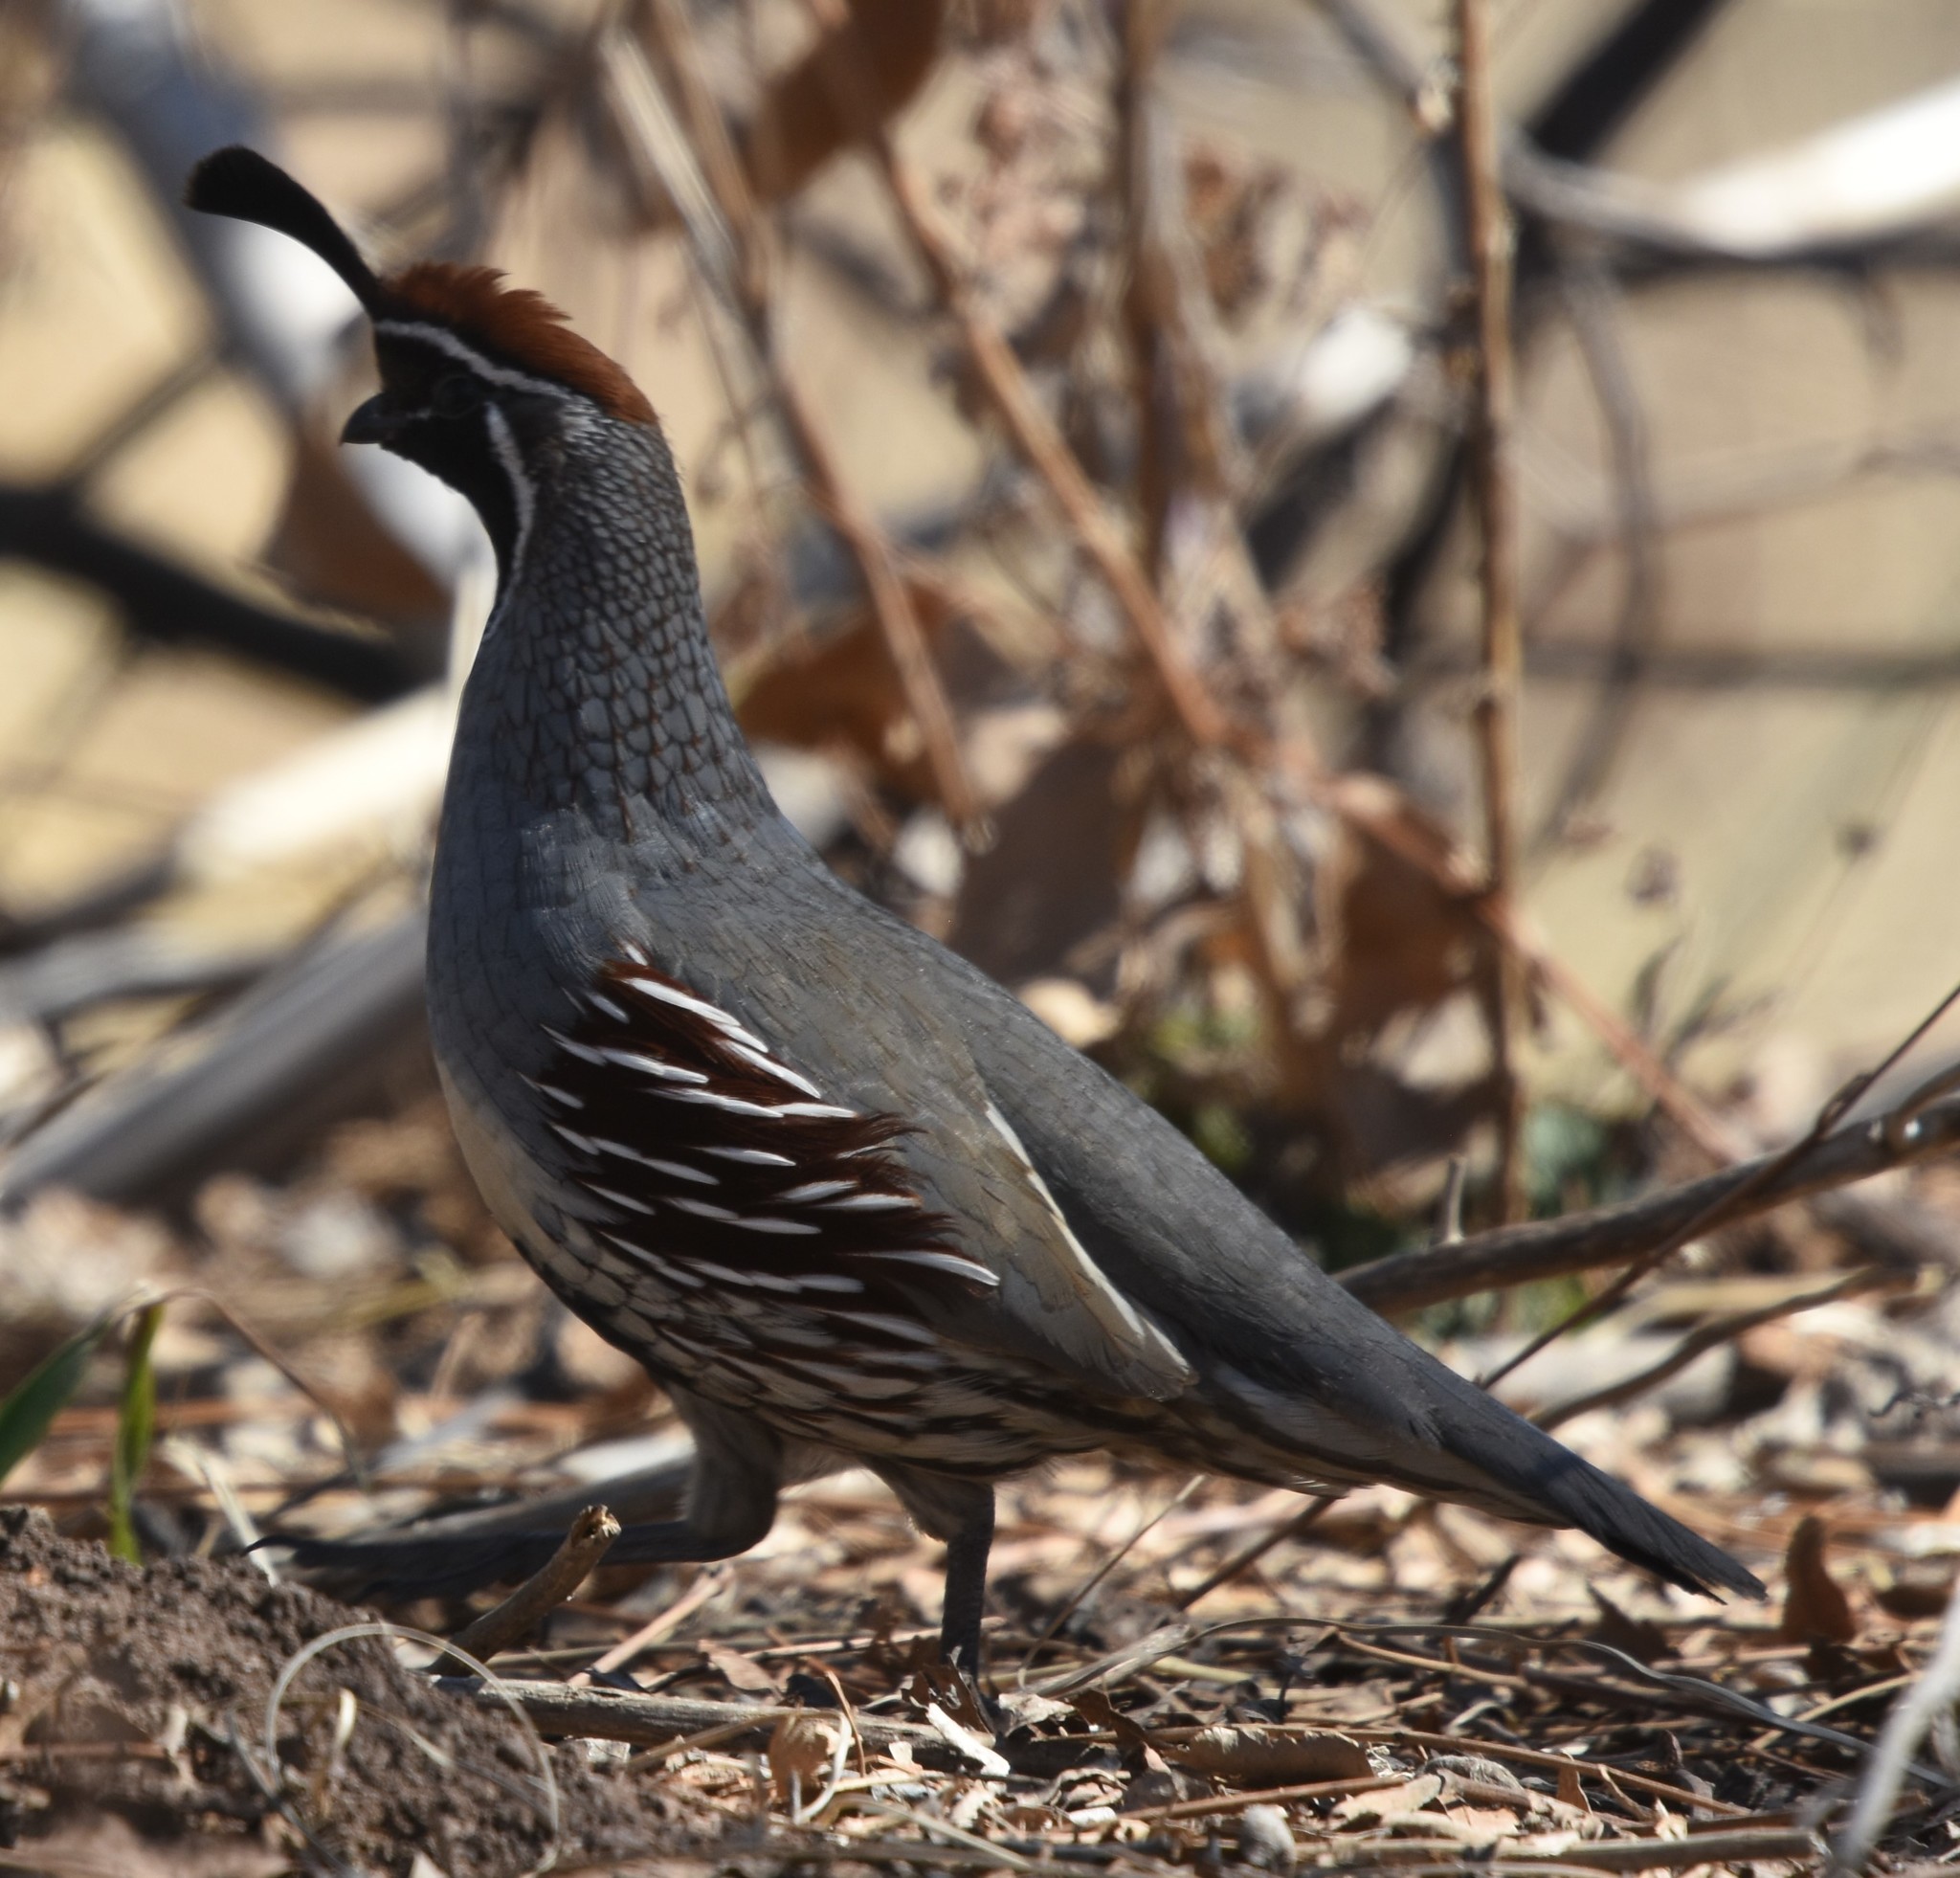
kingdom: Animalia
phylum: Chordata
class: Aves
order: Galliformes
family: Odontophoridae
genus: Callipepla
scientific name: Callipepla gambelii
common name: Gambel's quail
